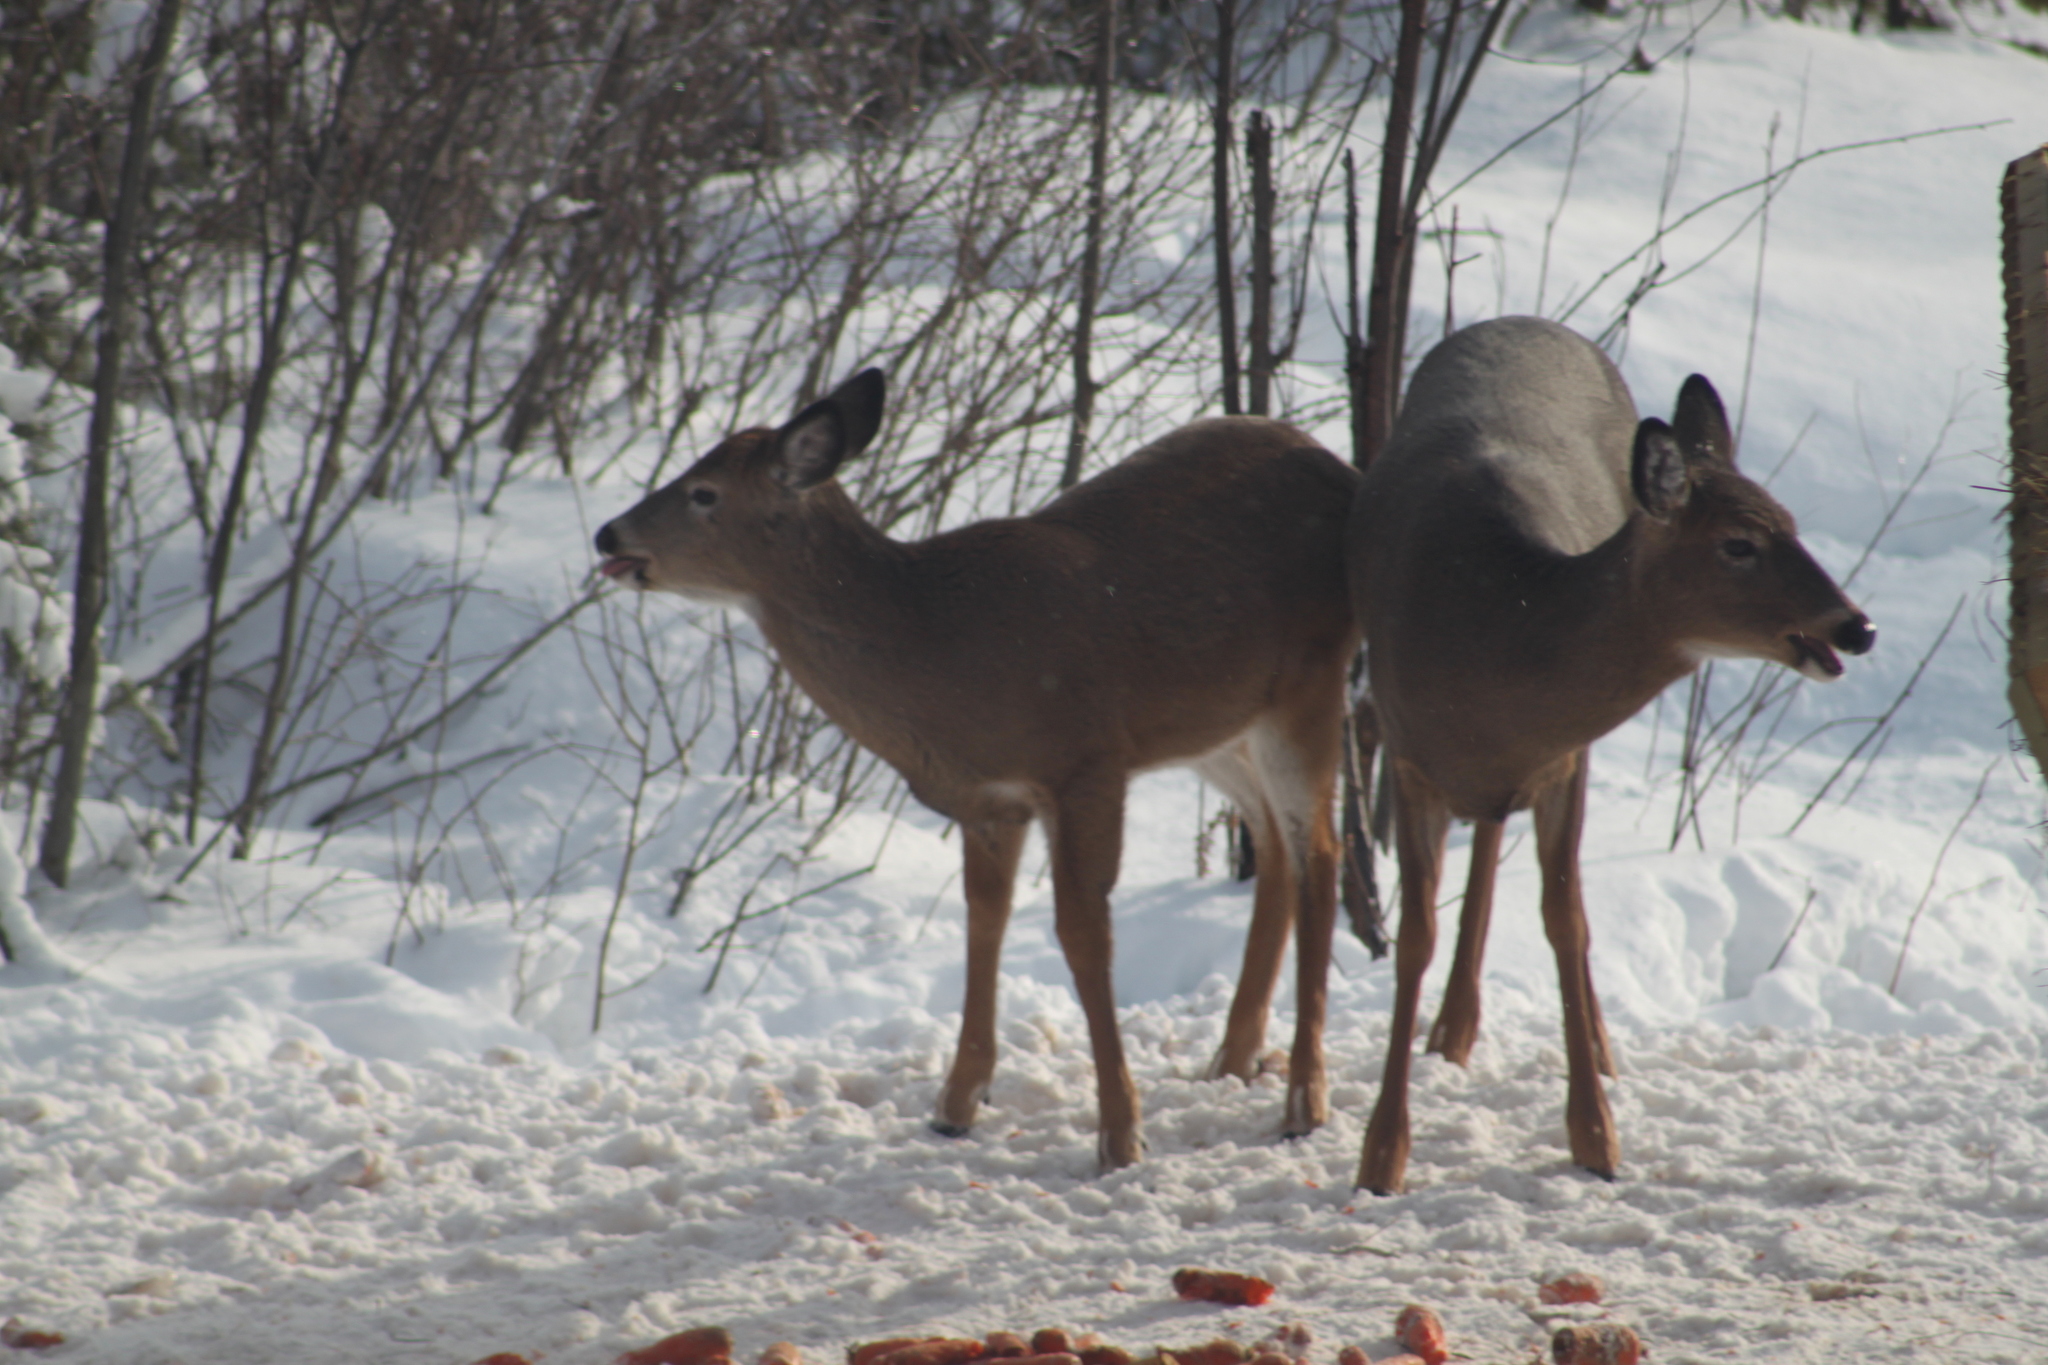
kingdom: Animalia
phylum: Chordata
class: Mammalia
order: Artiodactyla
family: Cervidae
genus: Odocoileus
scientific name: Odocoileus virginianus
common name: White-tailed deer
